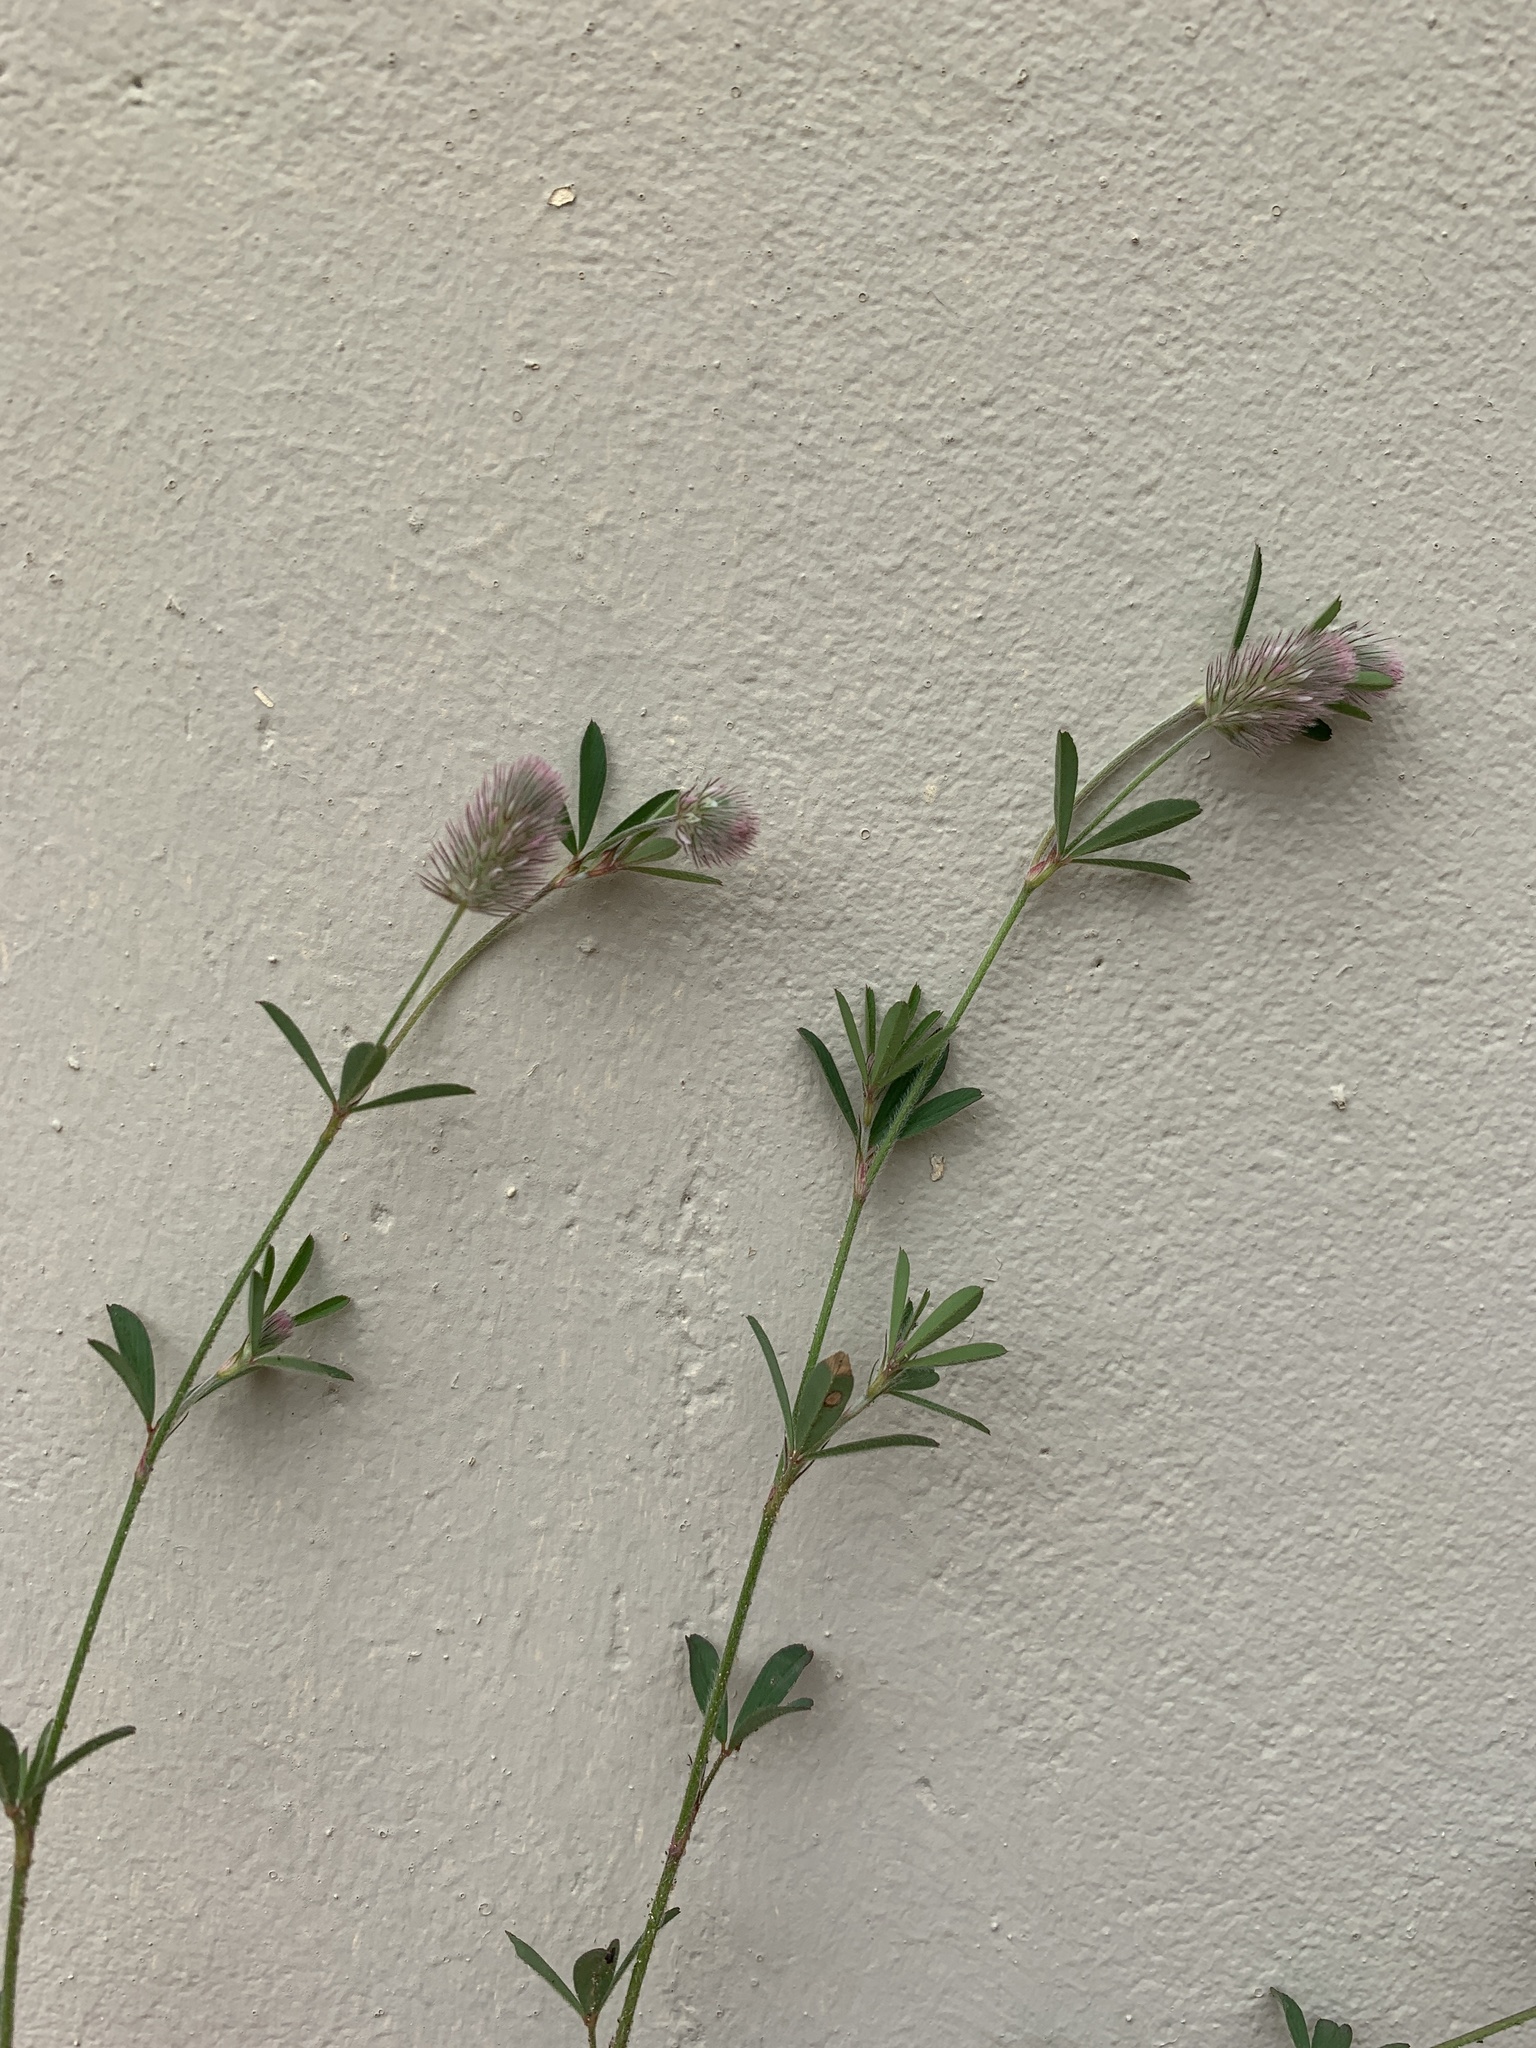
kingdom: Plantae
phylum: Tracheophyta
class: Magnoliopsida
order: Fabales
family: Fabaceae
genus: Trifolium
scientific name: Trifolium arvense
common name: Hare's-foot clover
